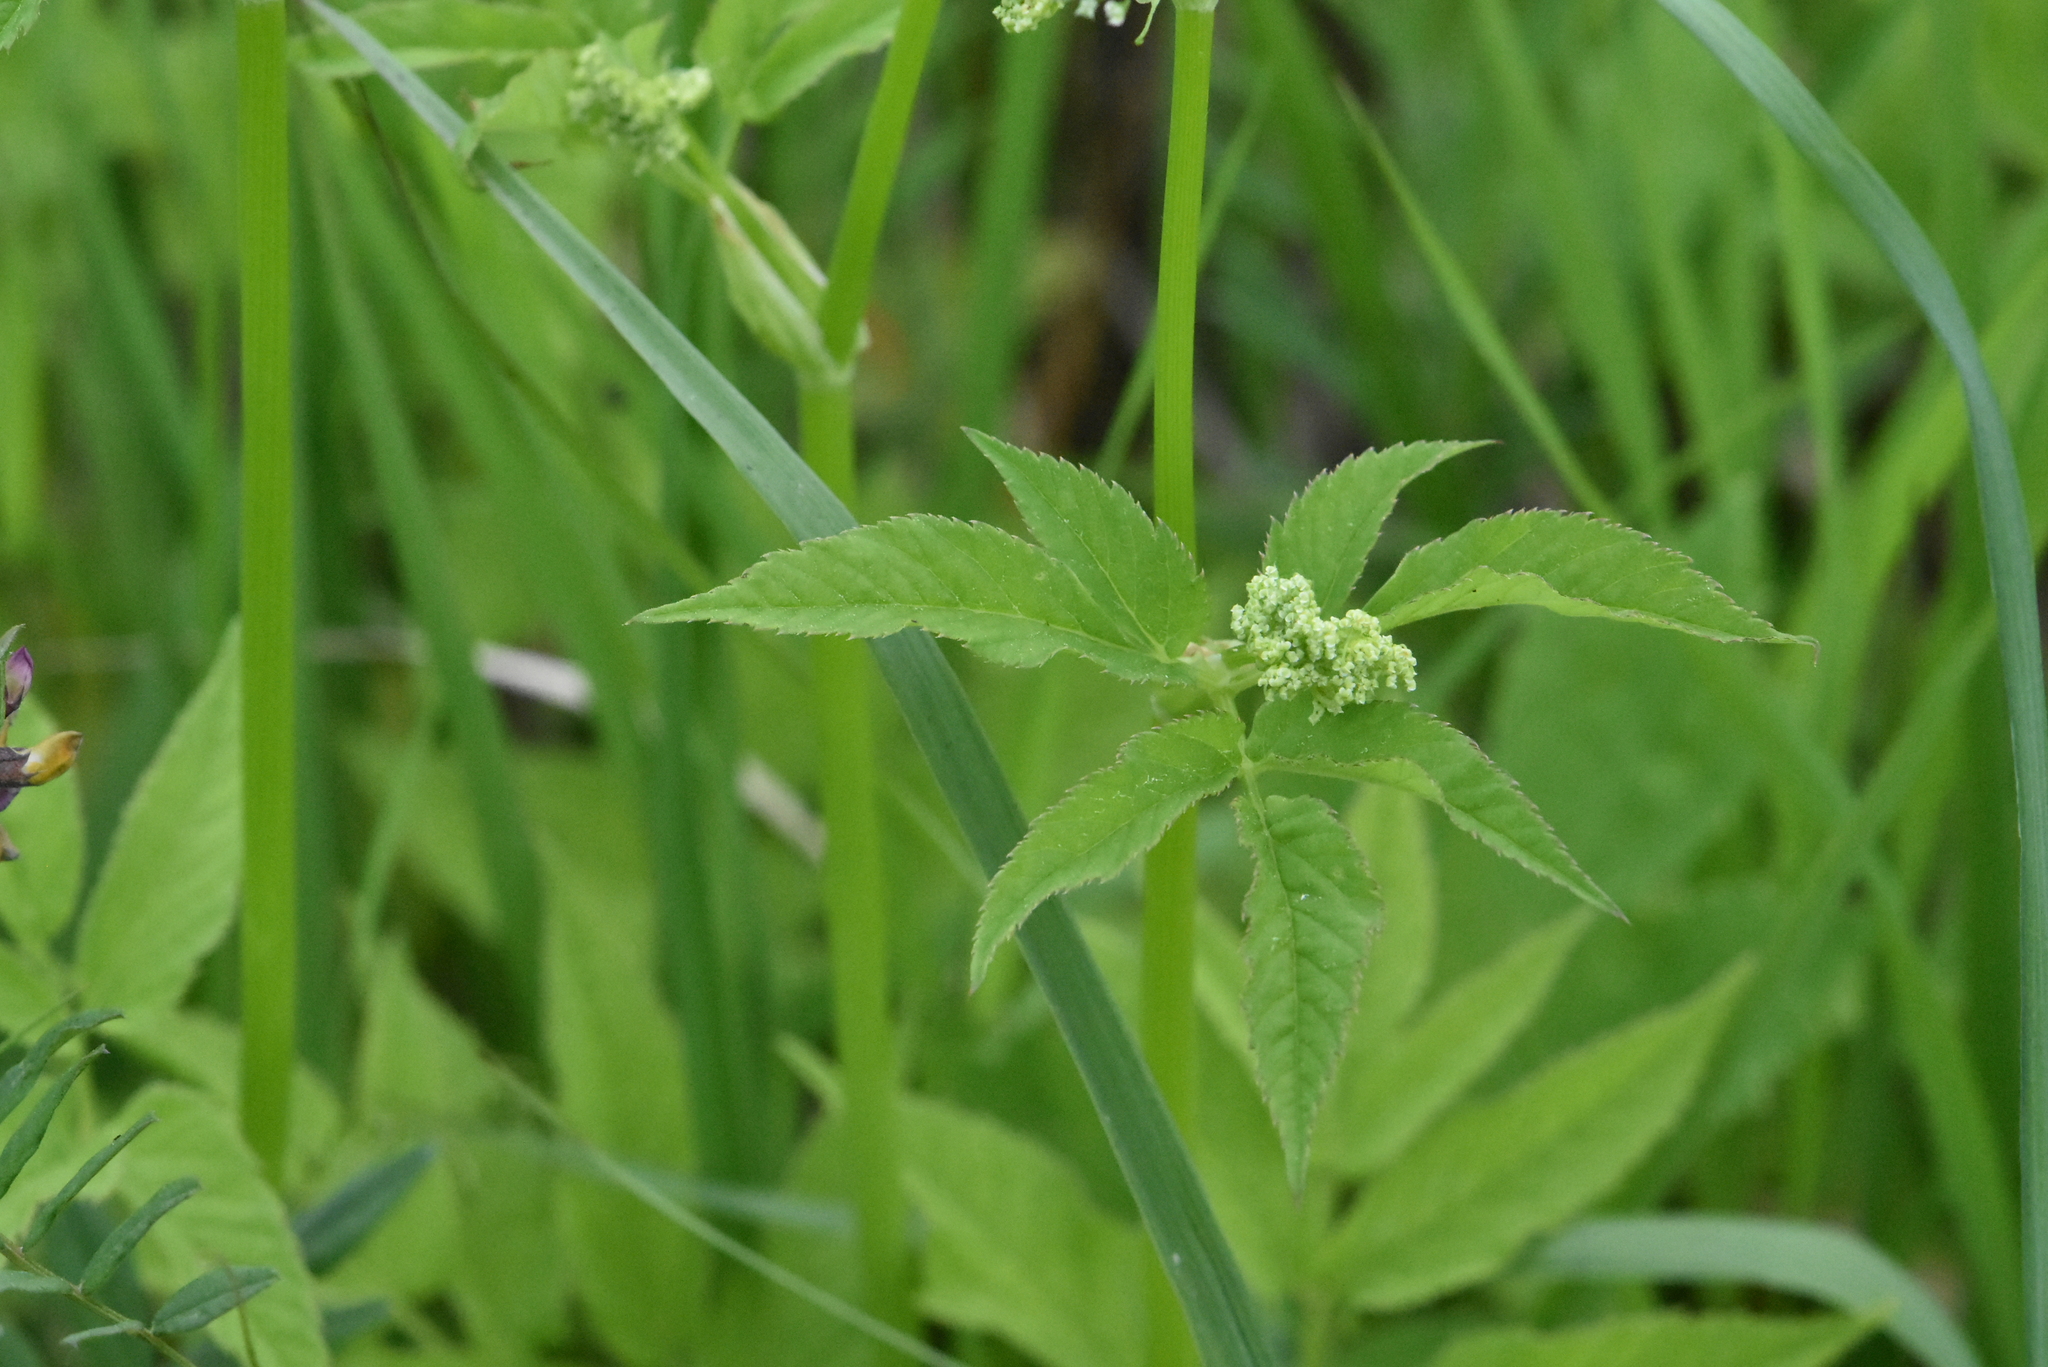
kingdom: Plantae
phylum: Tracheophyta
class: Magnoliopsida
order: Apiales
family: Apiaceae
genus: Aegopodium
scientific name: Aegopodium podagraria
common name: Ground-elder
